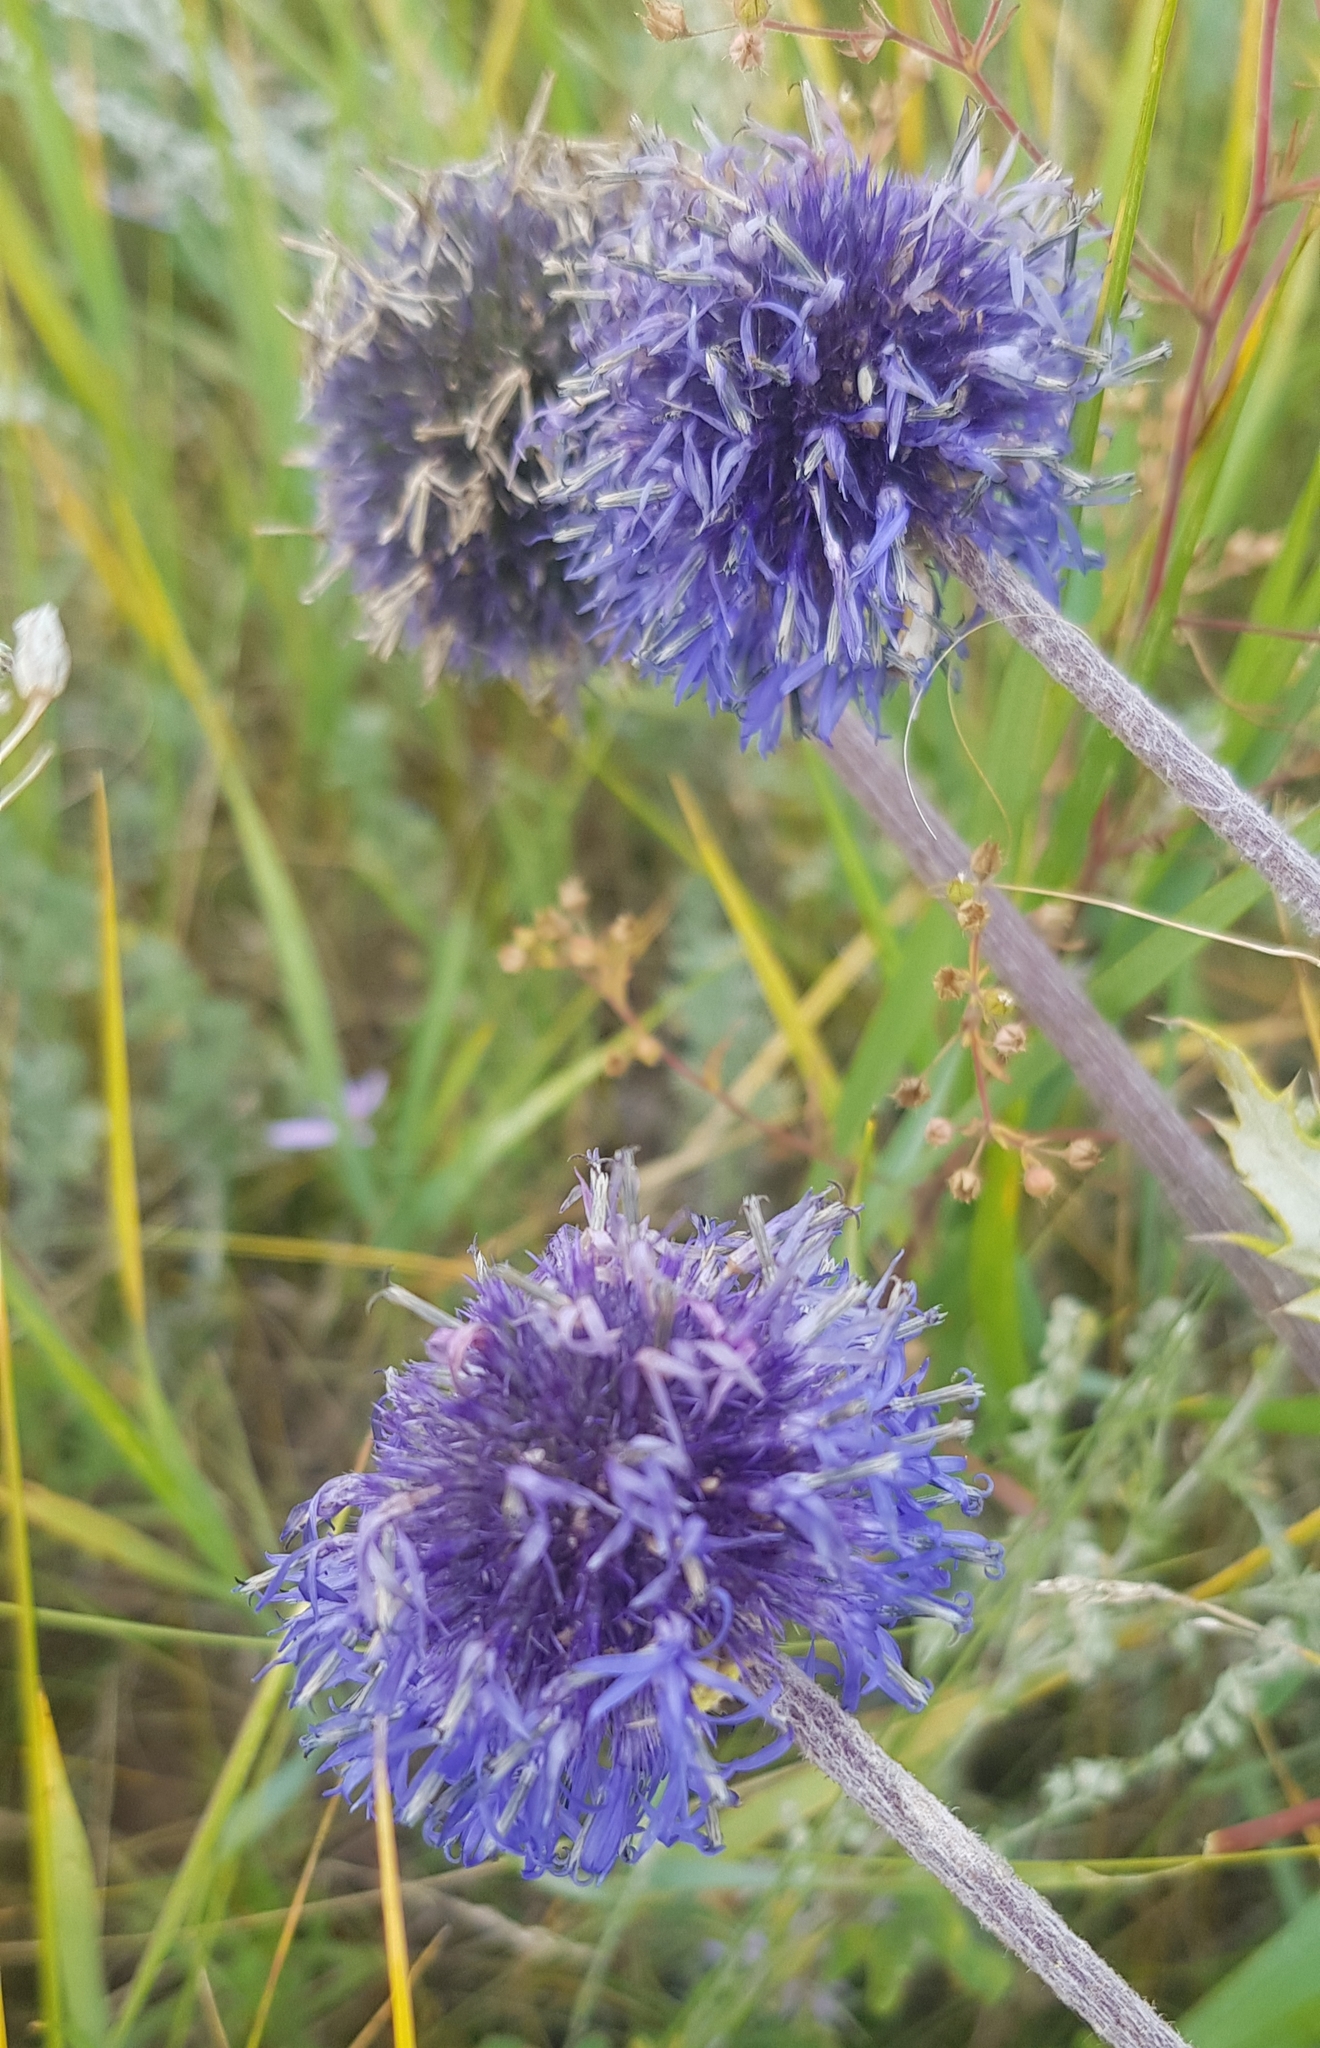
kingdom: Plantae
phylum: Tracheophyta
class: Magnoliopsida
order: Asterales
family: Asteraceae
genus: Echinops
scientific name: Echinops davuricus
